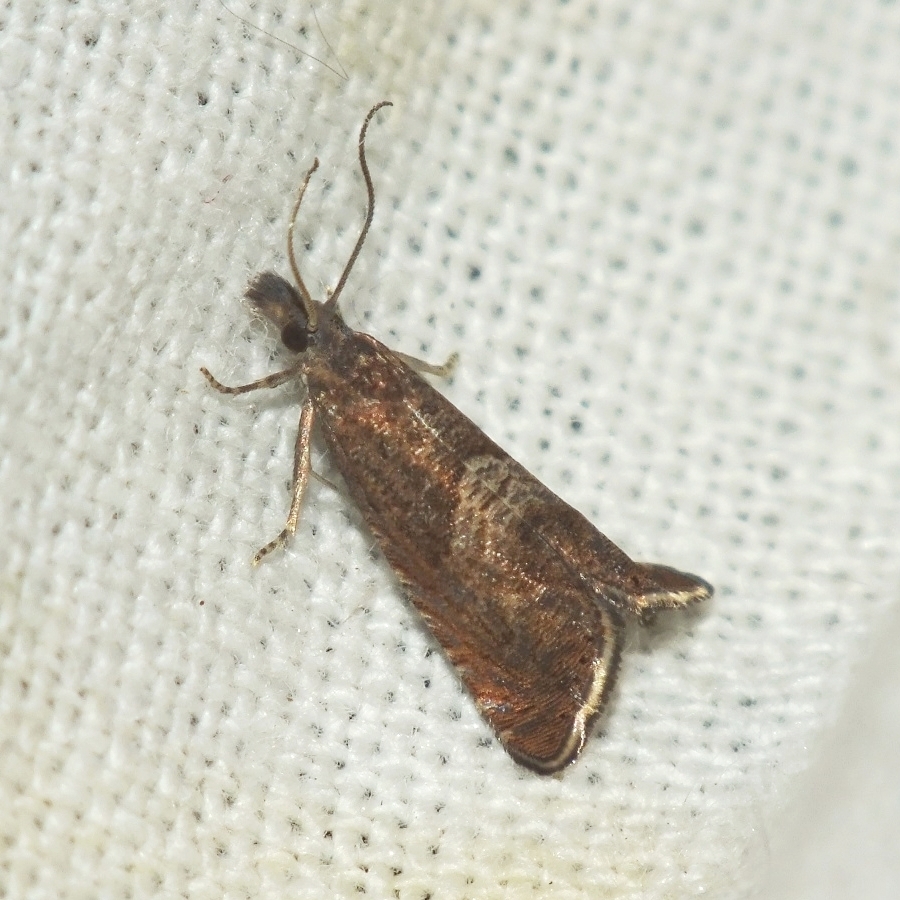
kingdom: Animalia
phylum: Arthropoda
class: Insecta
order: Lepidoptera
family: Tortricidae
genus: Dichrorampha
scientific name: Dichrorampha acuminatana
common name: Sharp-winged drill
